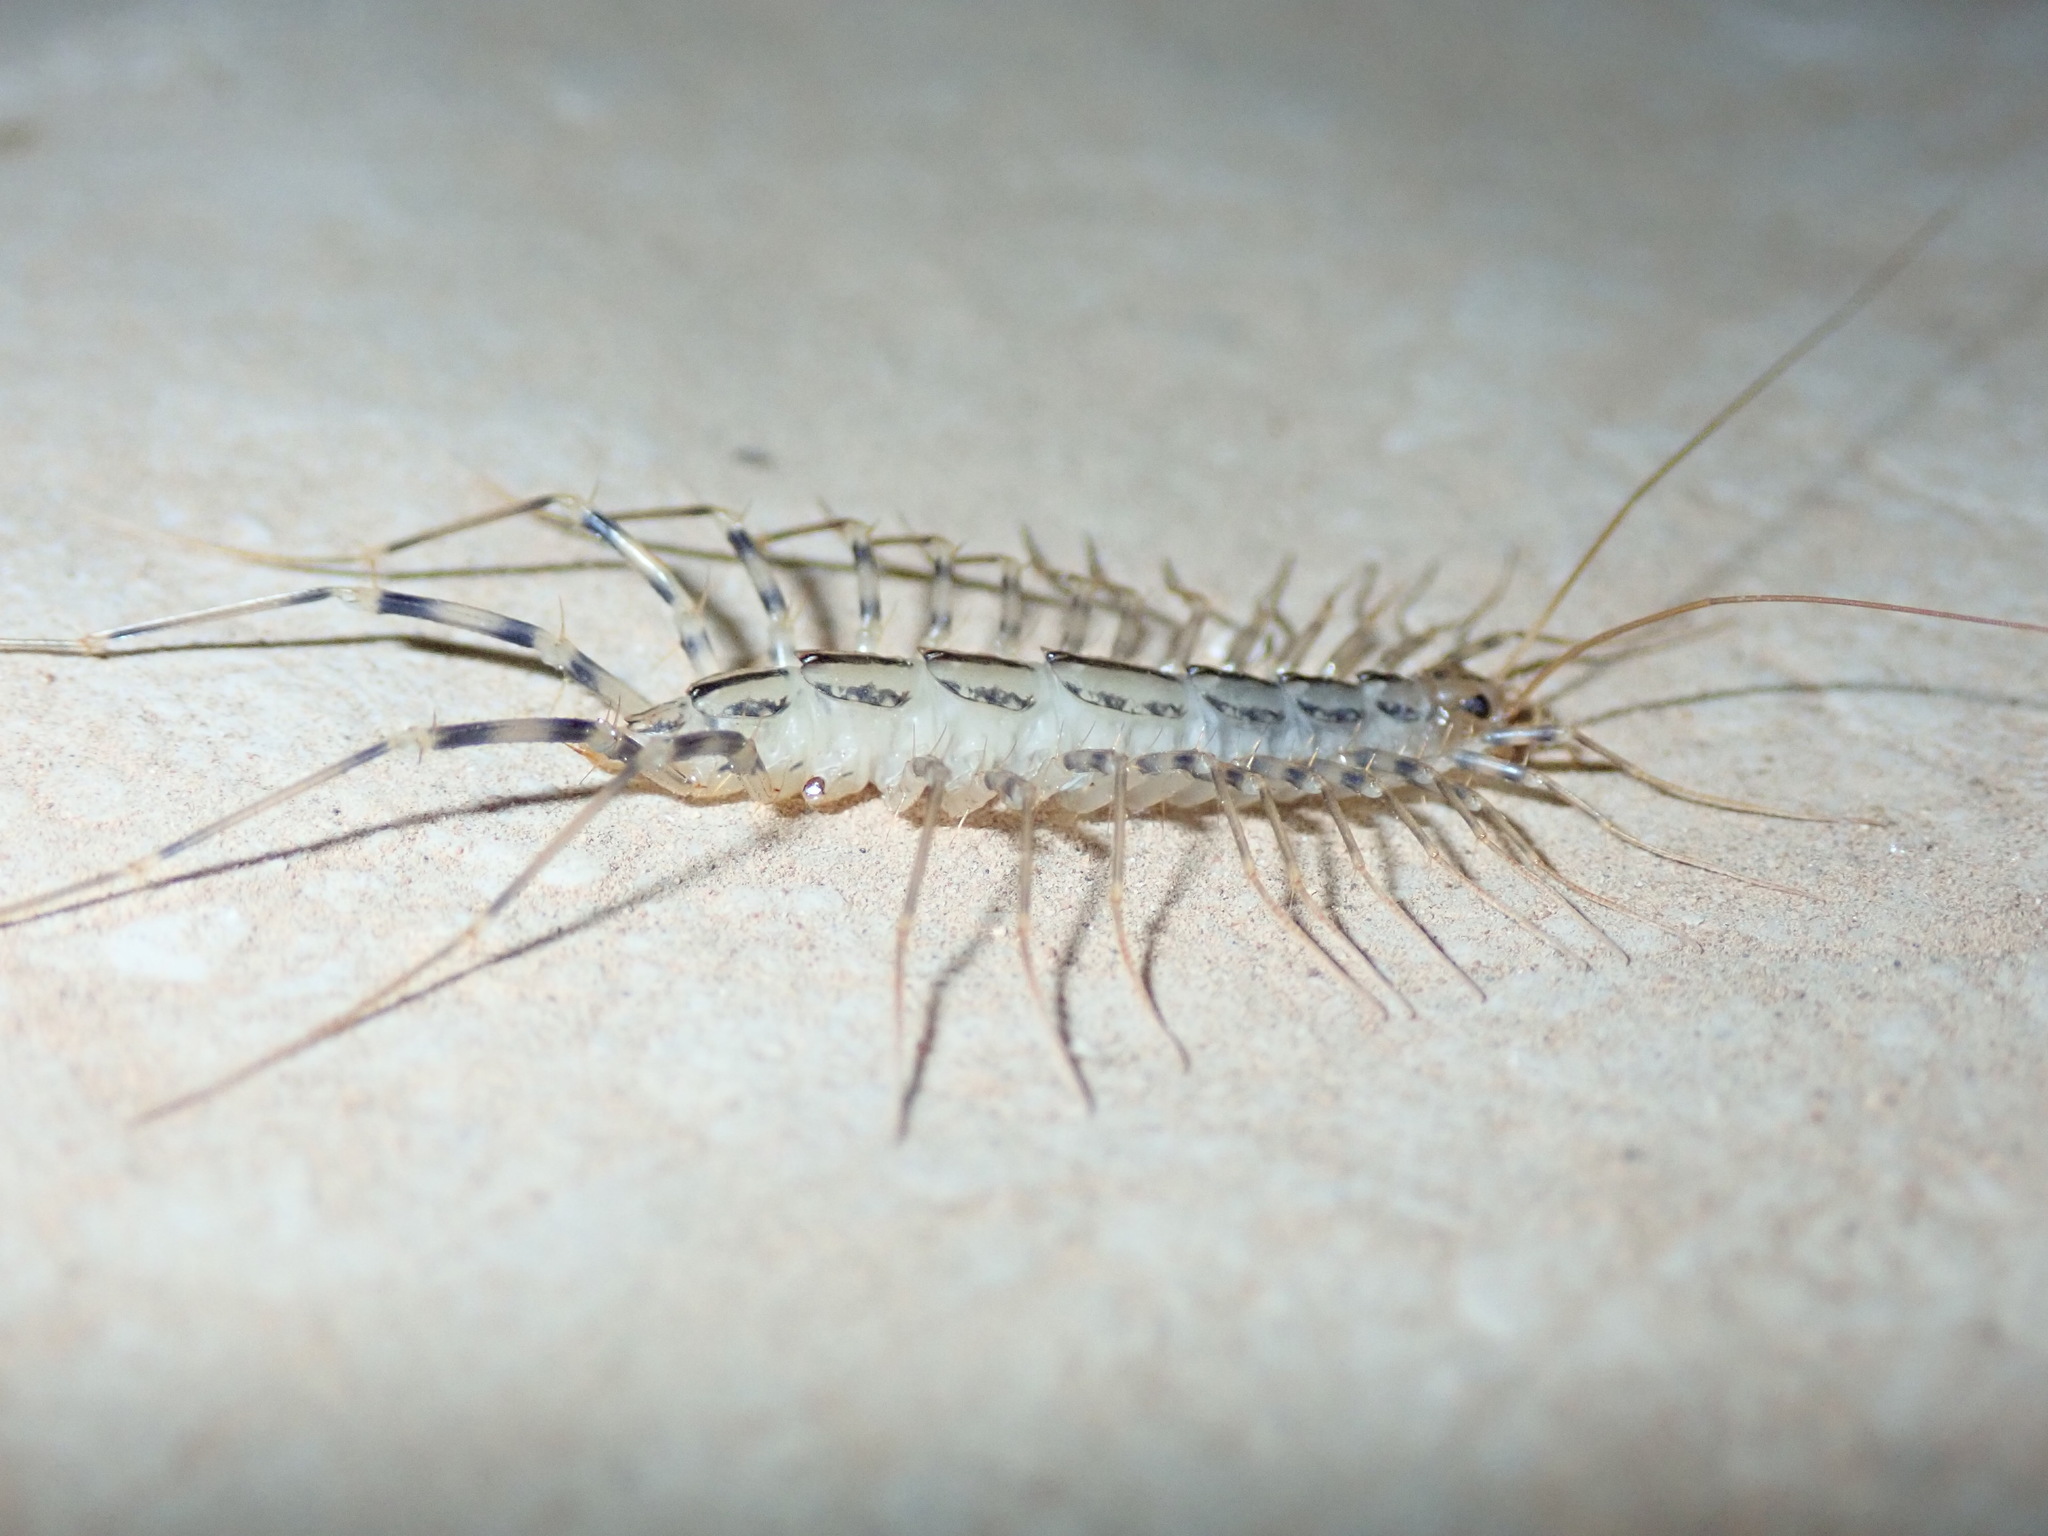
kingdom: Animalia
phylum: Arthropoda
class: Chilopoda
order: Scutigeromorpha
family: Scutigeridae
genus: Scutigera
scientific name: Scutigera coleoptrata
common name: House centipede
